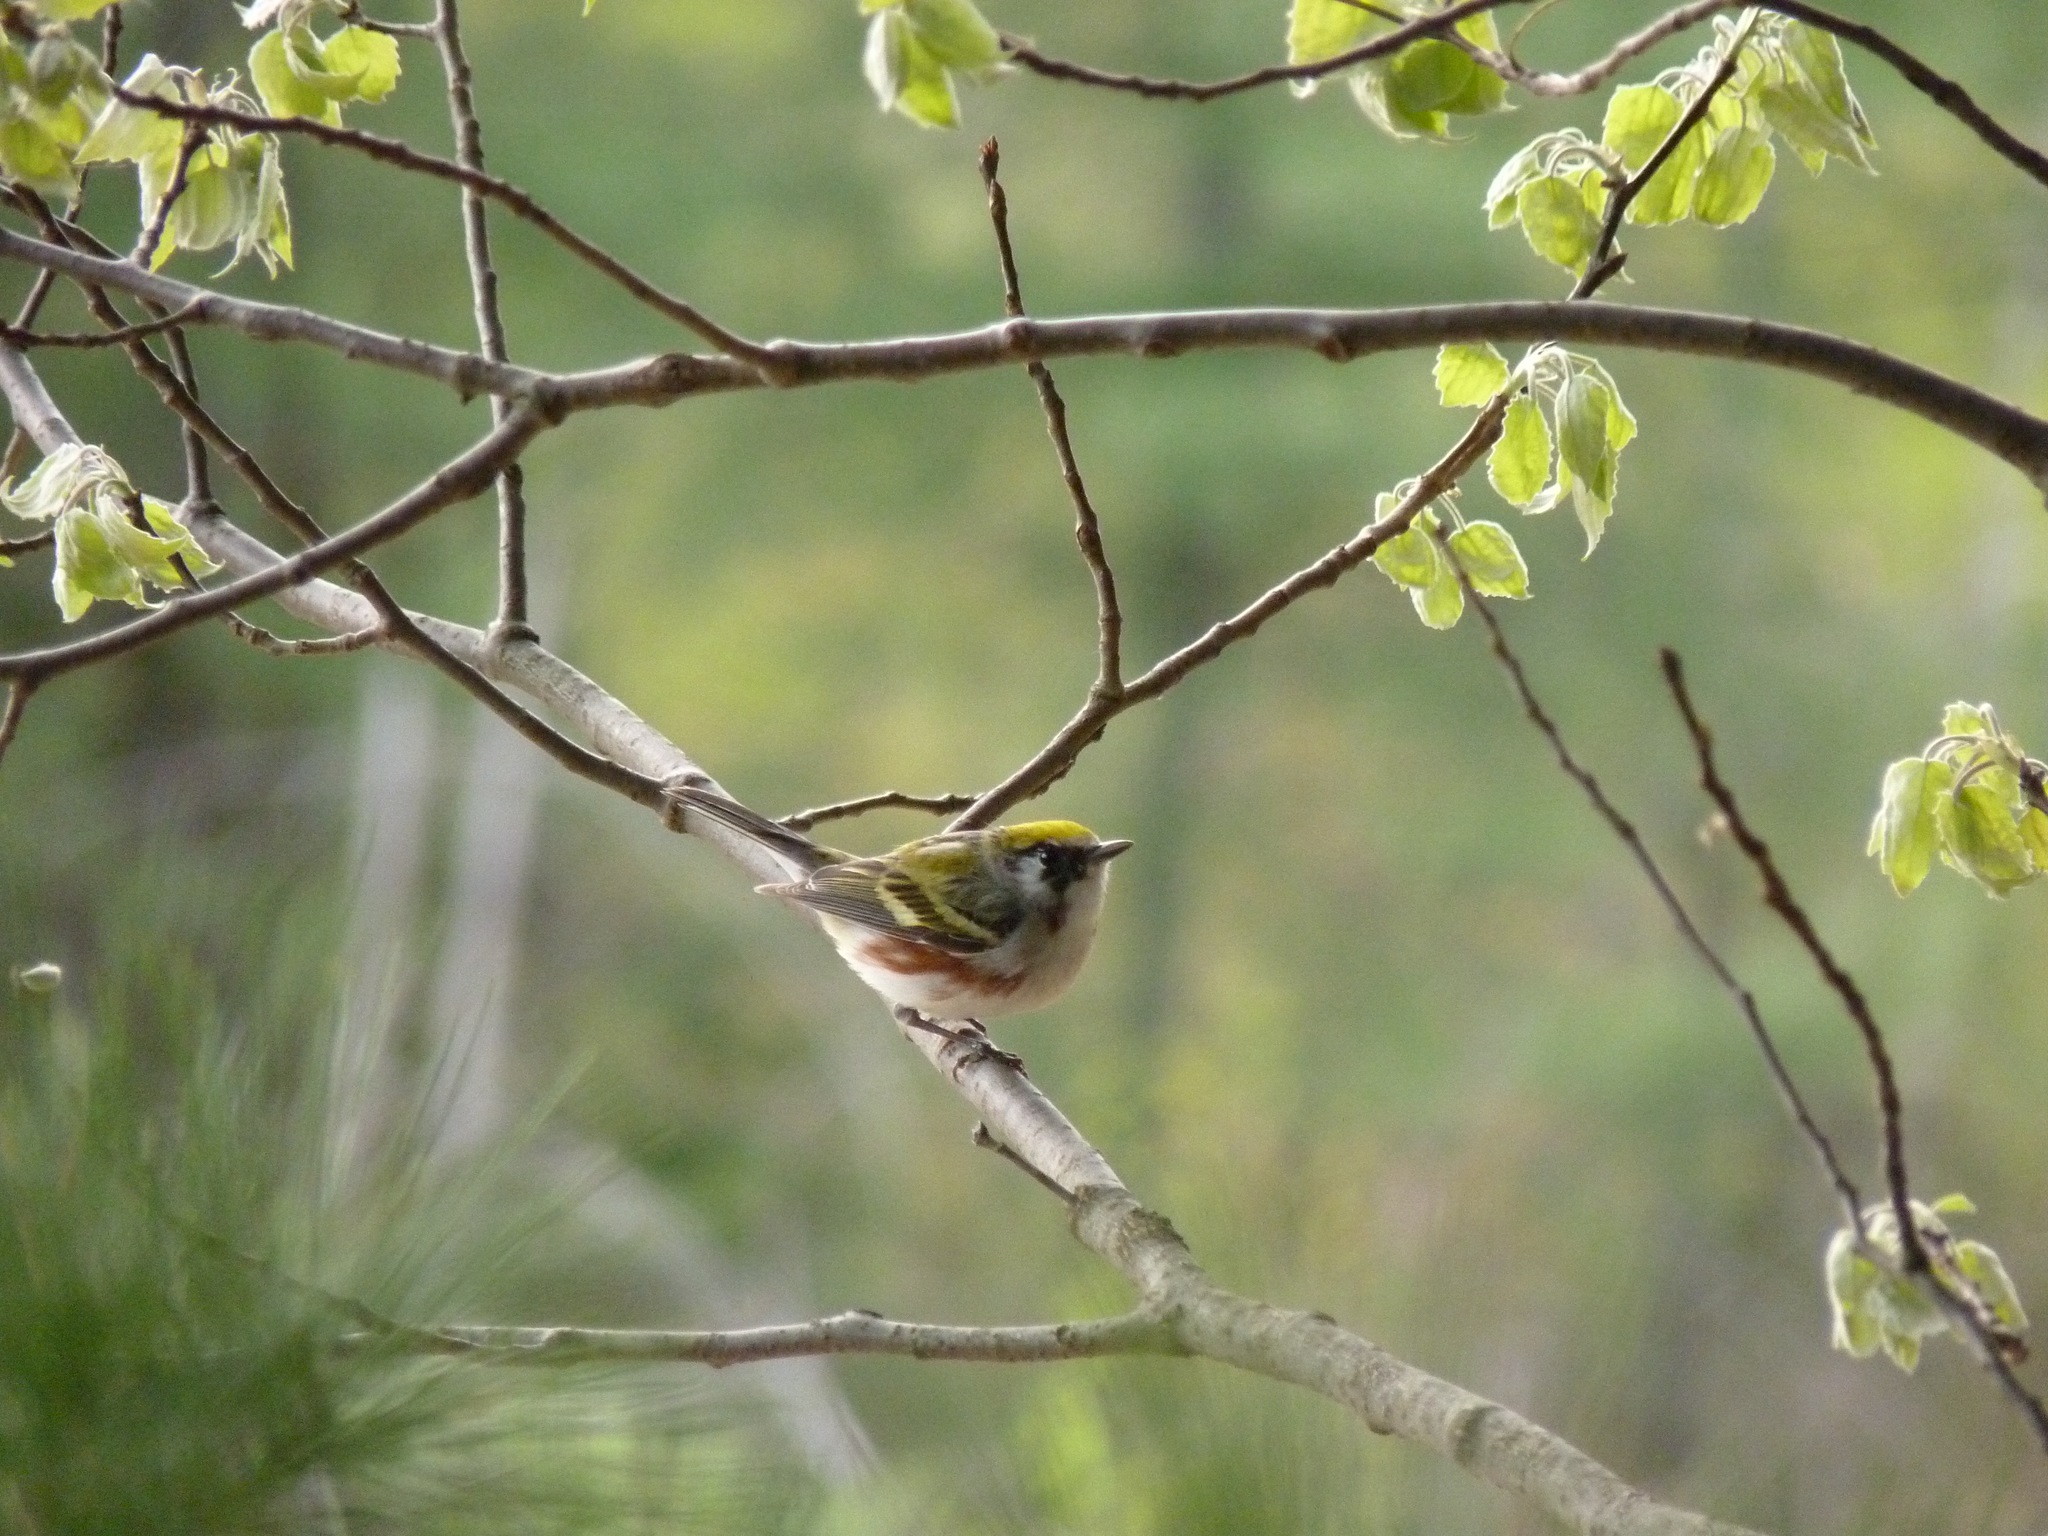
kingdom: Animalia
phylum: Chordata
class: Aves
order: Passeriformes
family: Parulidae
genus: Setophaga
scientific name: Setophaga pensylvanica
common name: Chestnut-sided warbler
